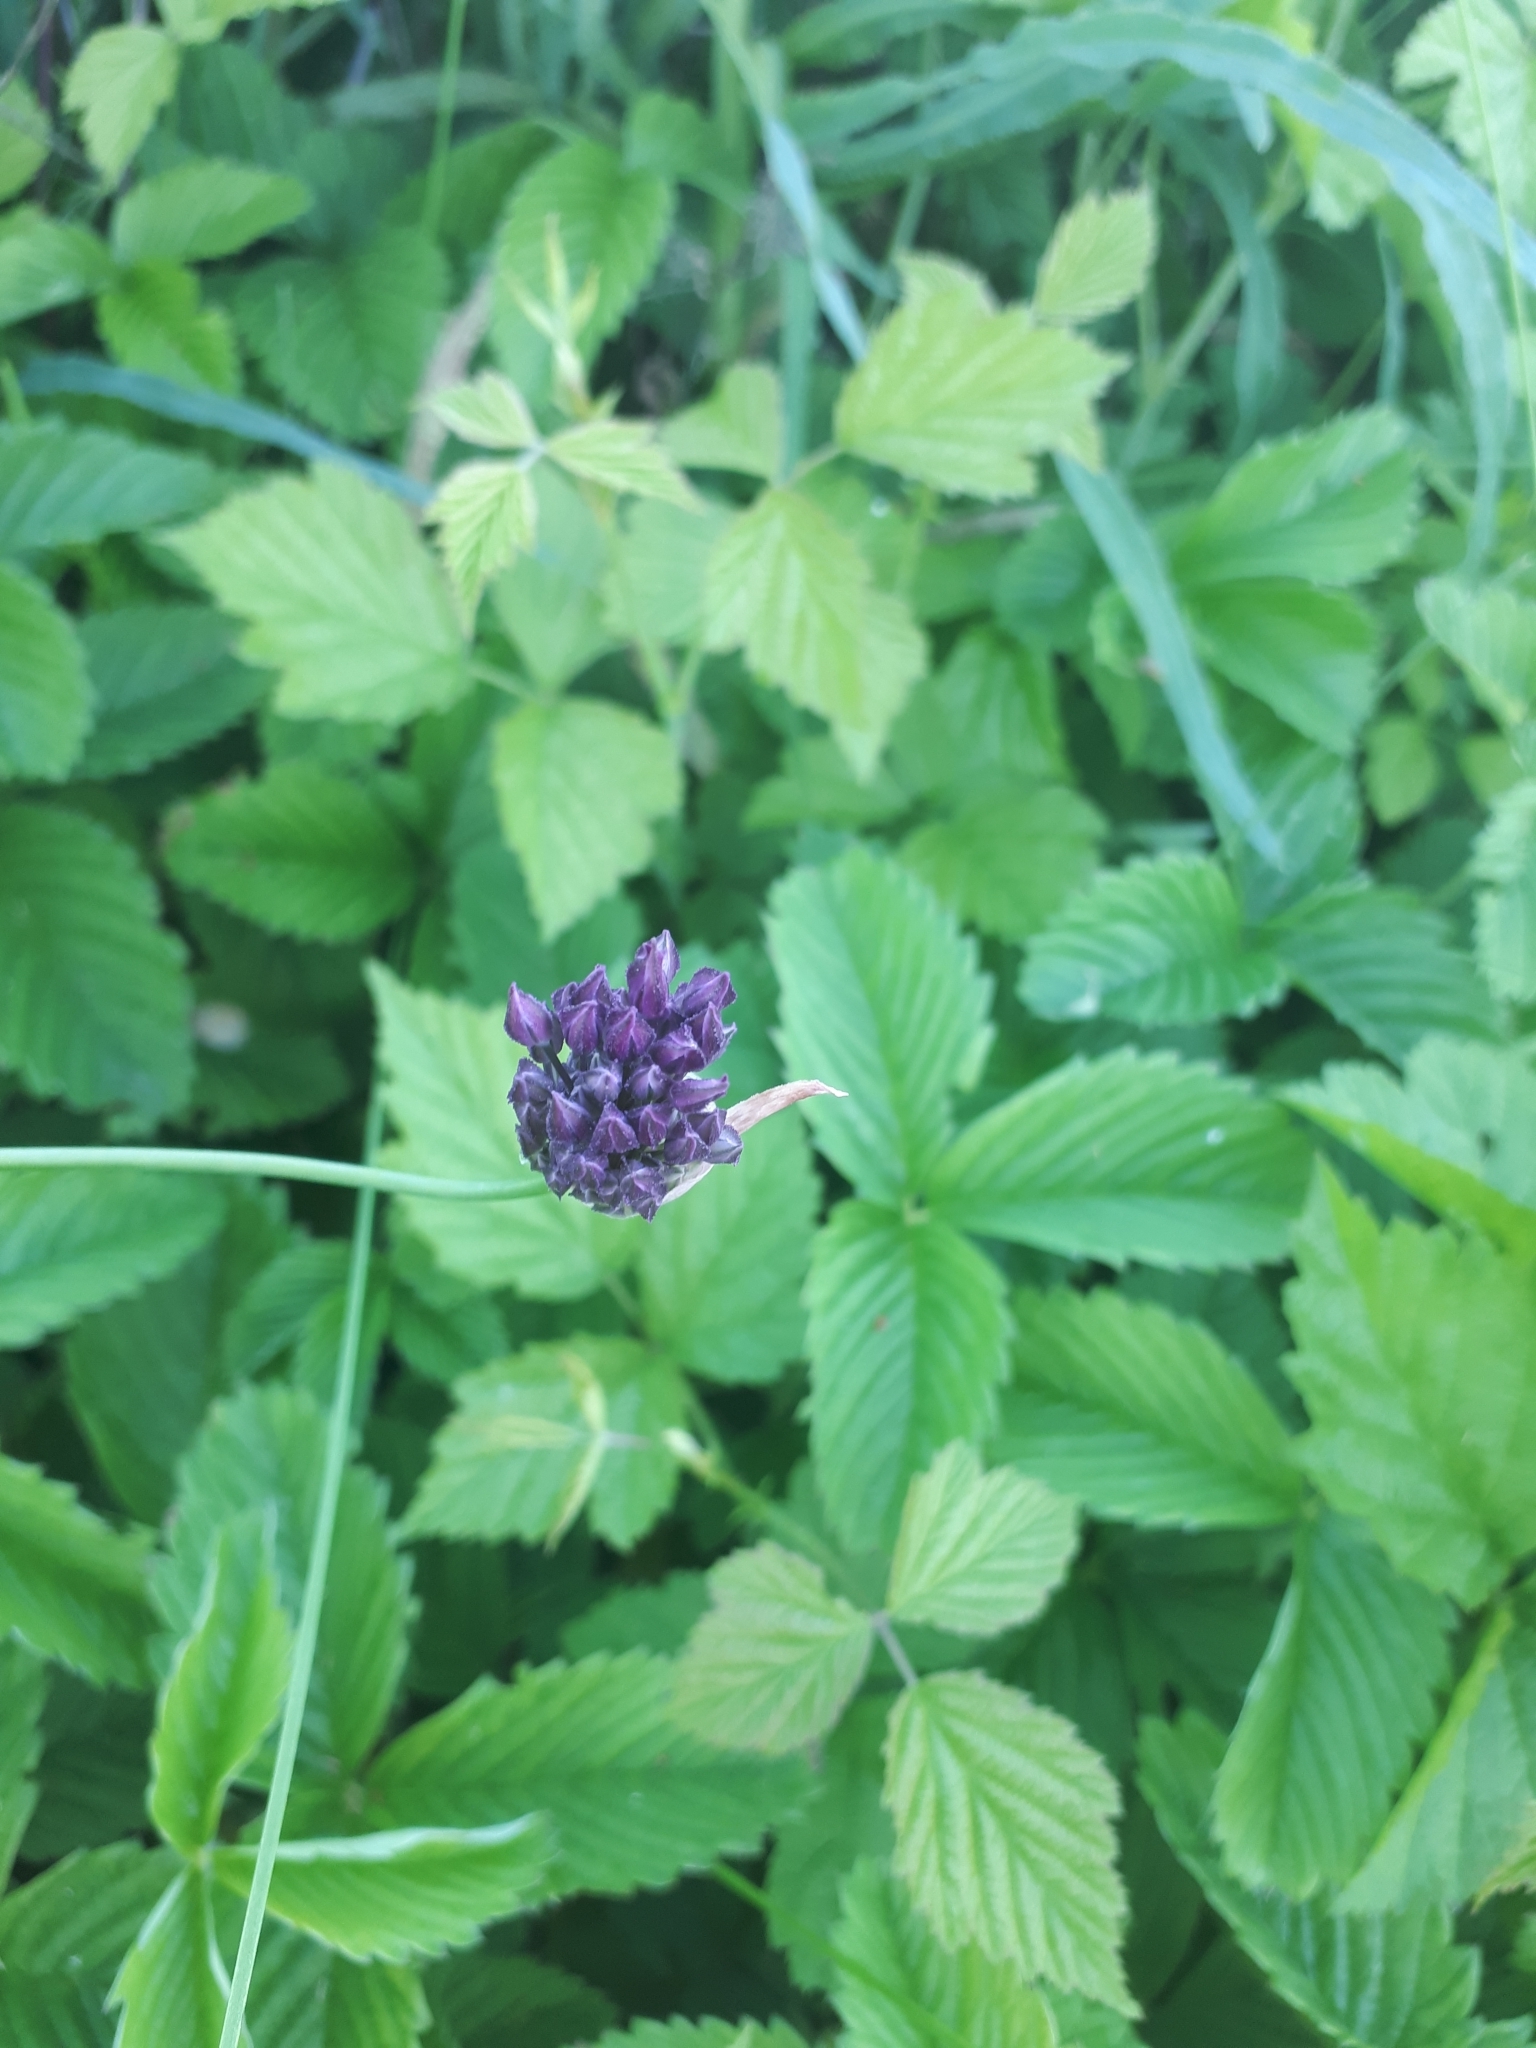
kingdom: Plantae
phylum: Tracheophyta
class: Liliopsida
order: Asparagales
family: Amaryllidaceae
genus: Allium
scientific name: Allium rotundum
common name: Sand leek
